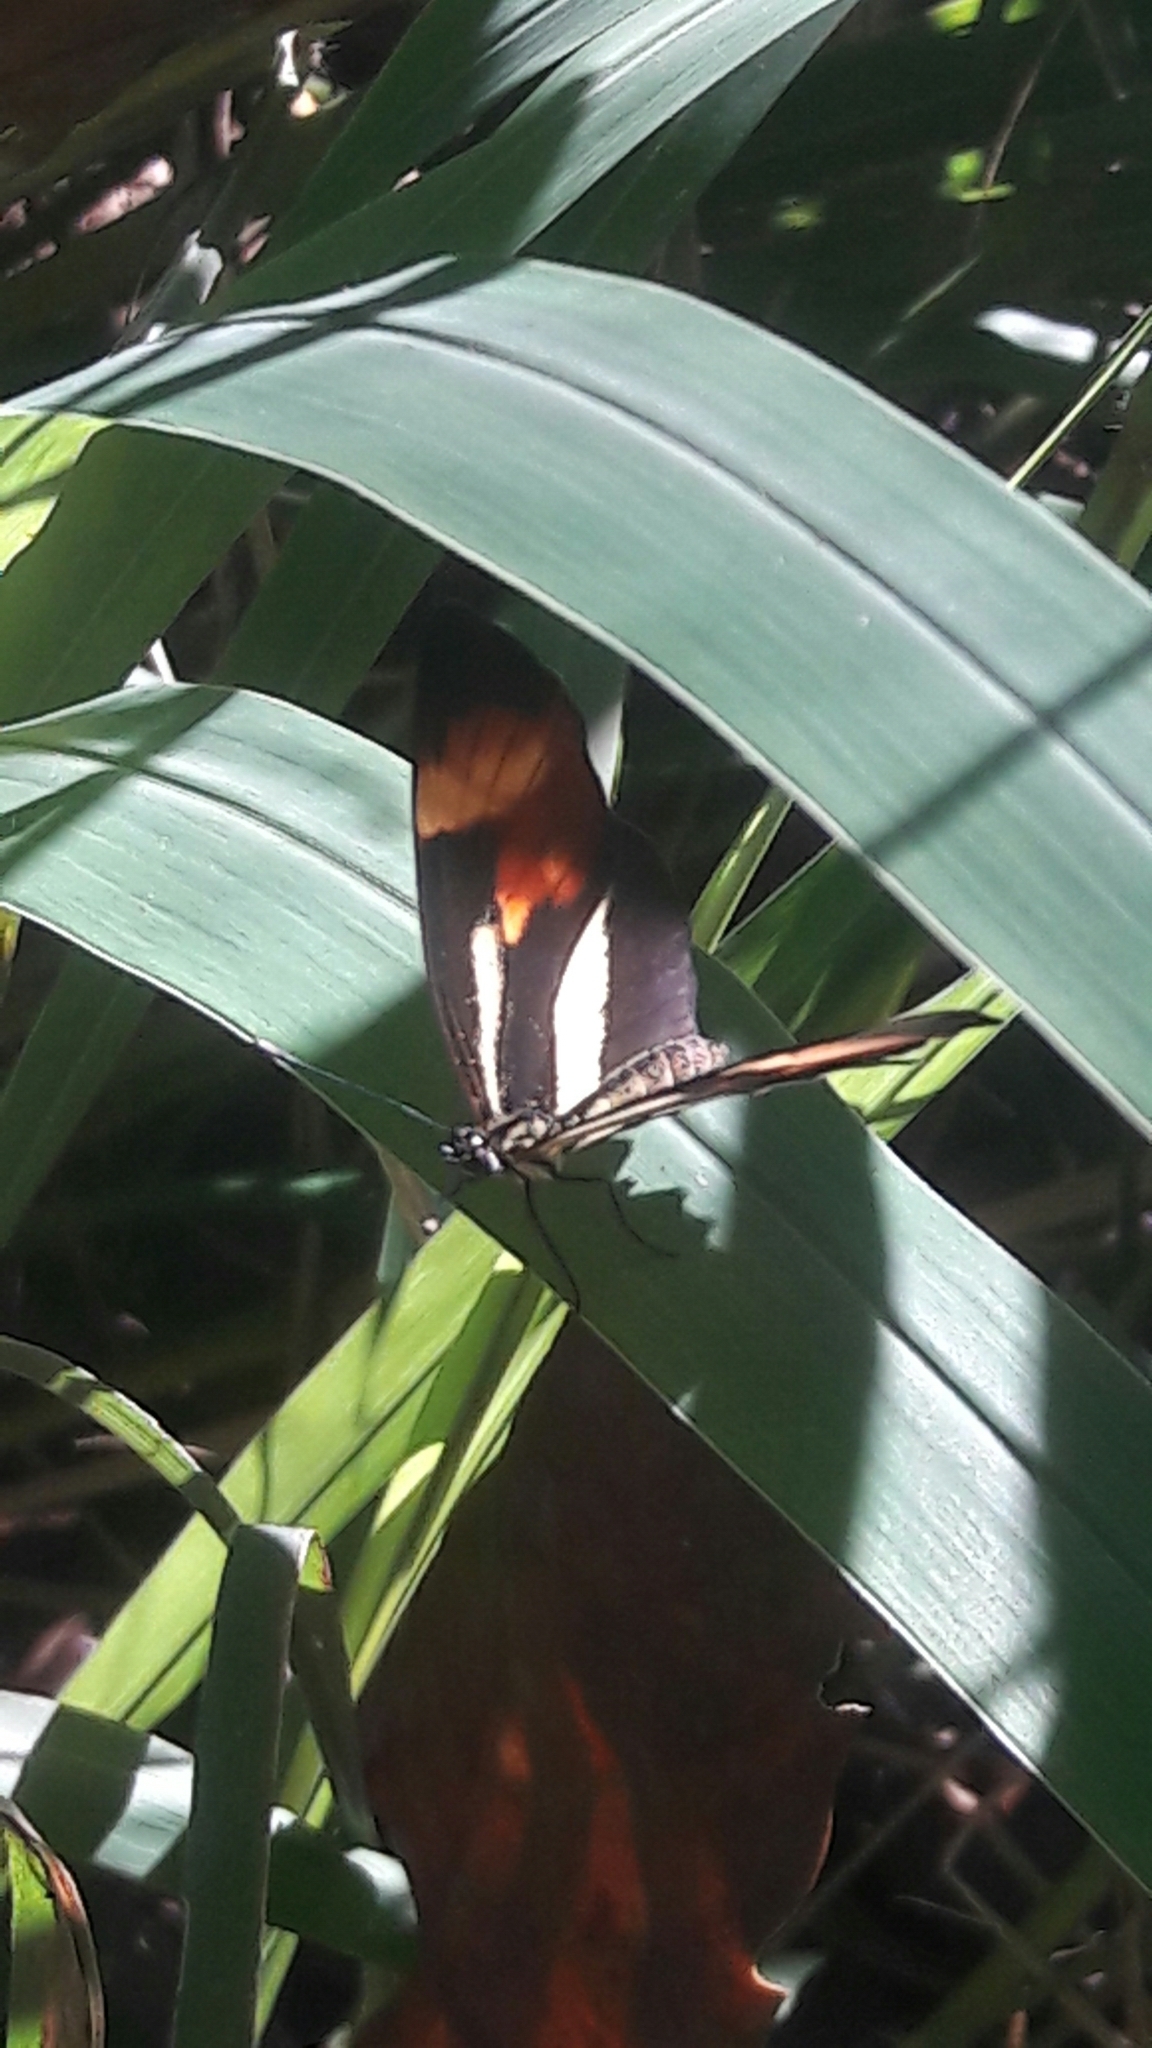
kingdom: Animalia
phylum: Arthropoda
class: Insecta
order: Lepidoptera
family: Nymphalidae
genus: Eresia
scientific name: Eresia lansdorfi
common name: Lansdorf's crescent
